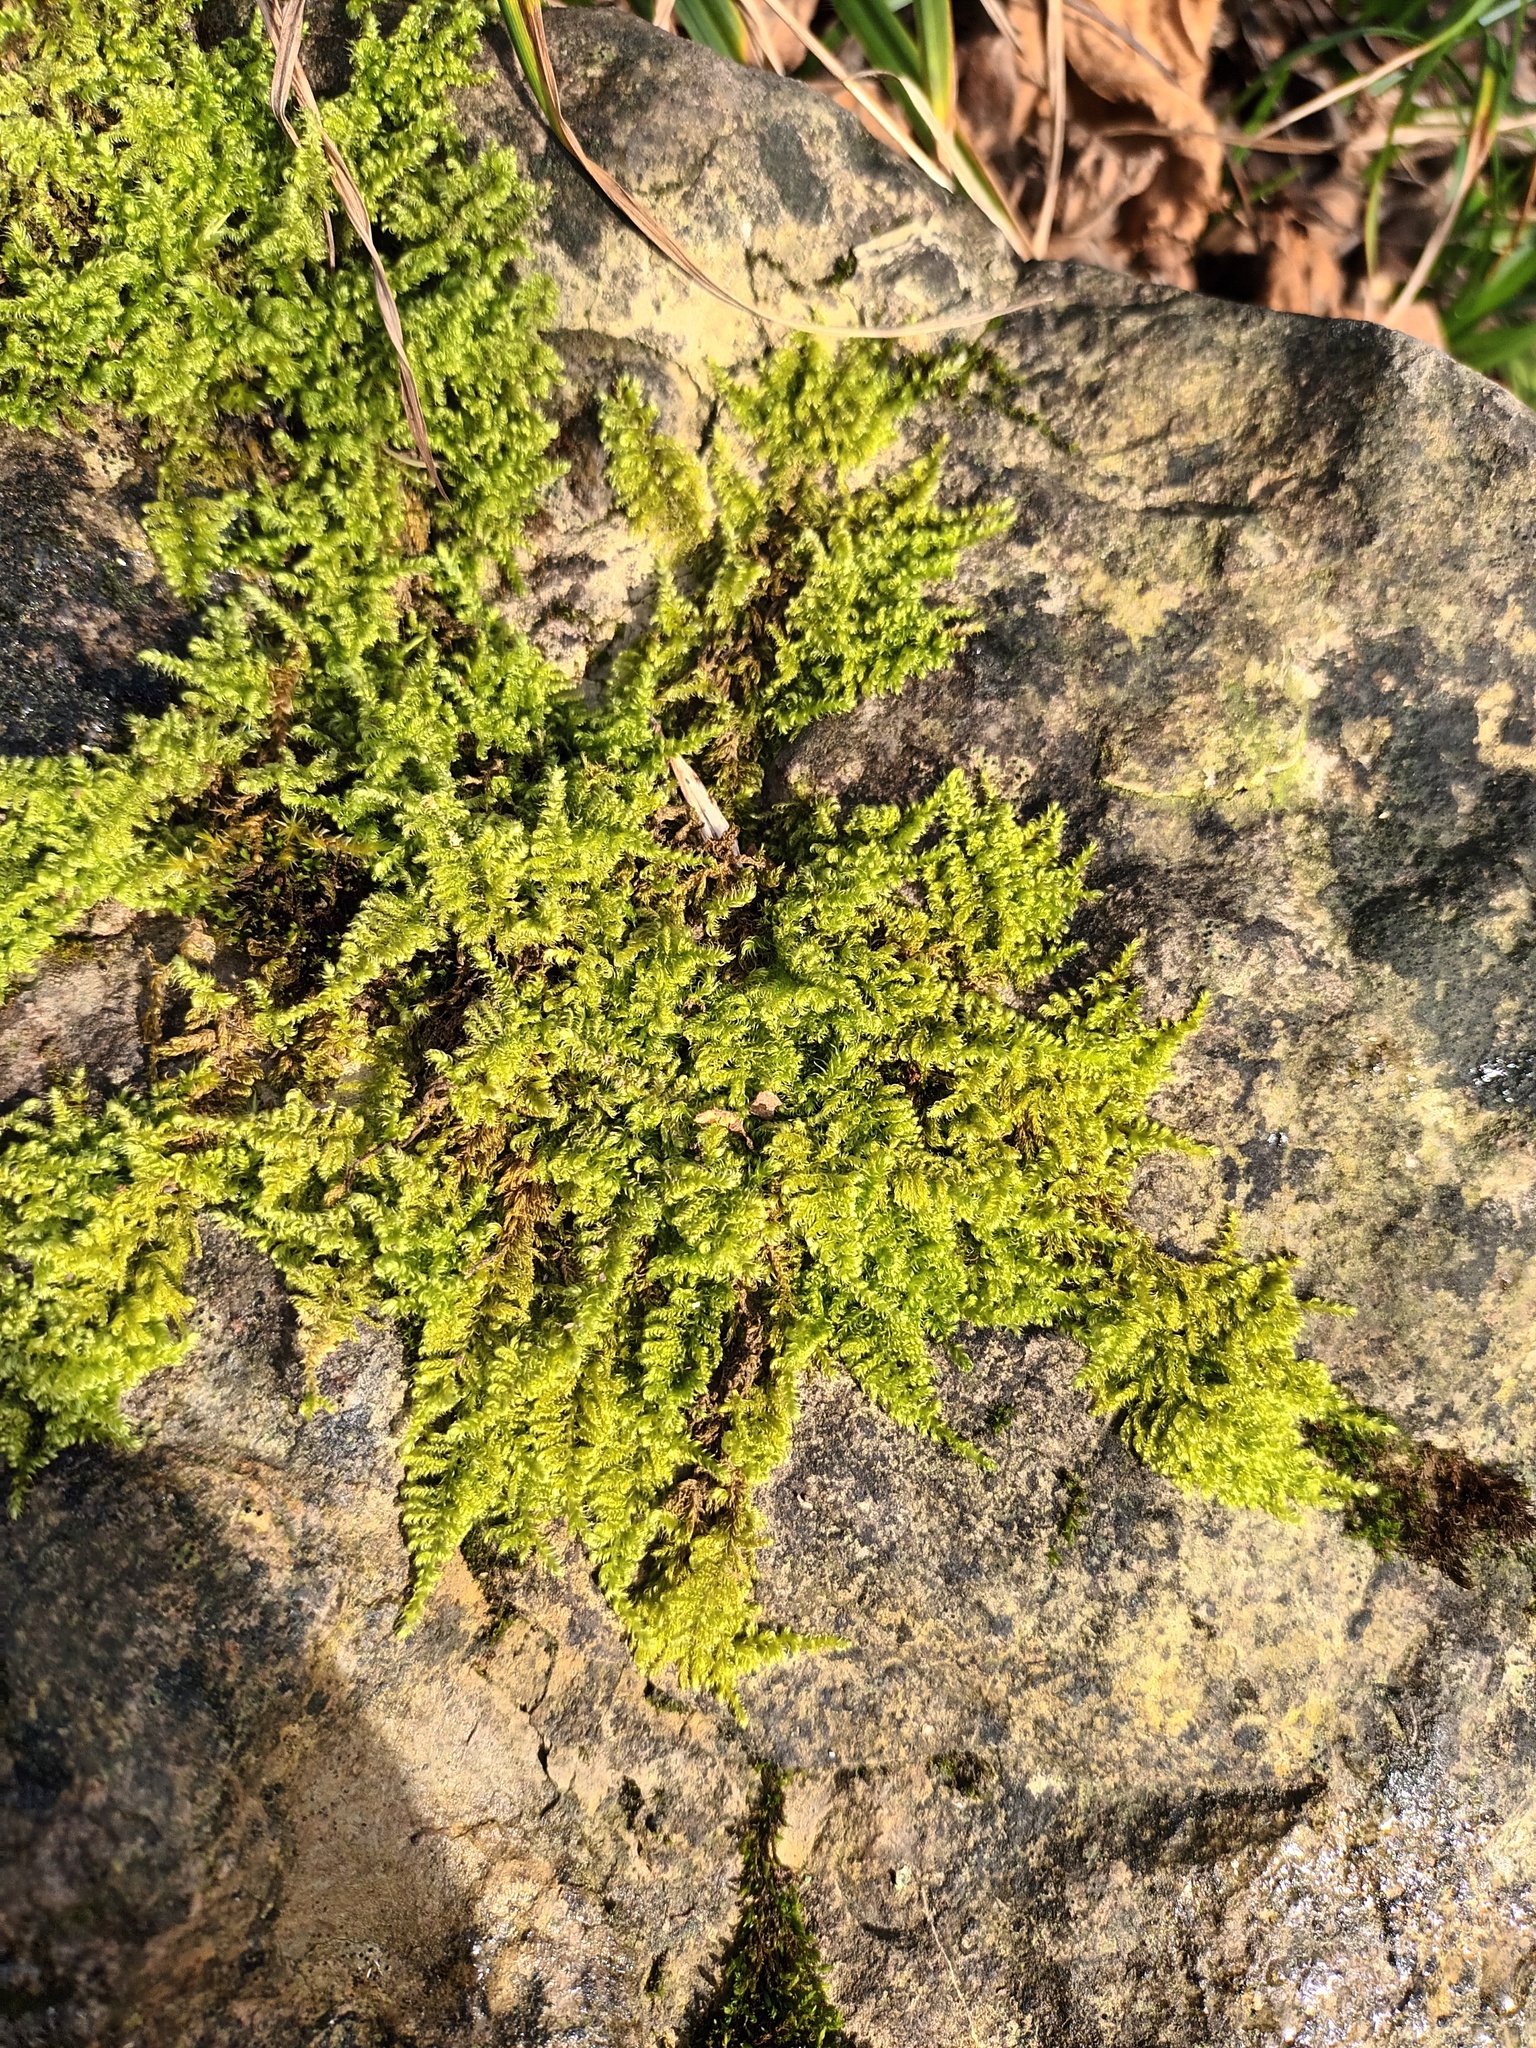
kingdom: Plantae
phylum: Bryophyta
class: Bryopsida
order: Hypnales
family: Myuriaceae
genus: Ctenidium
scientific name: Ctenidium molluscum
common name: Chalk comb-moss
